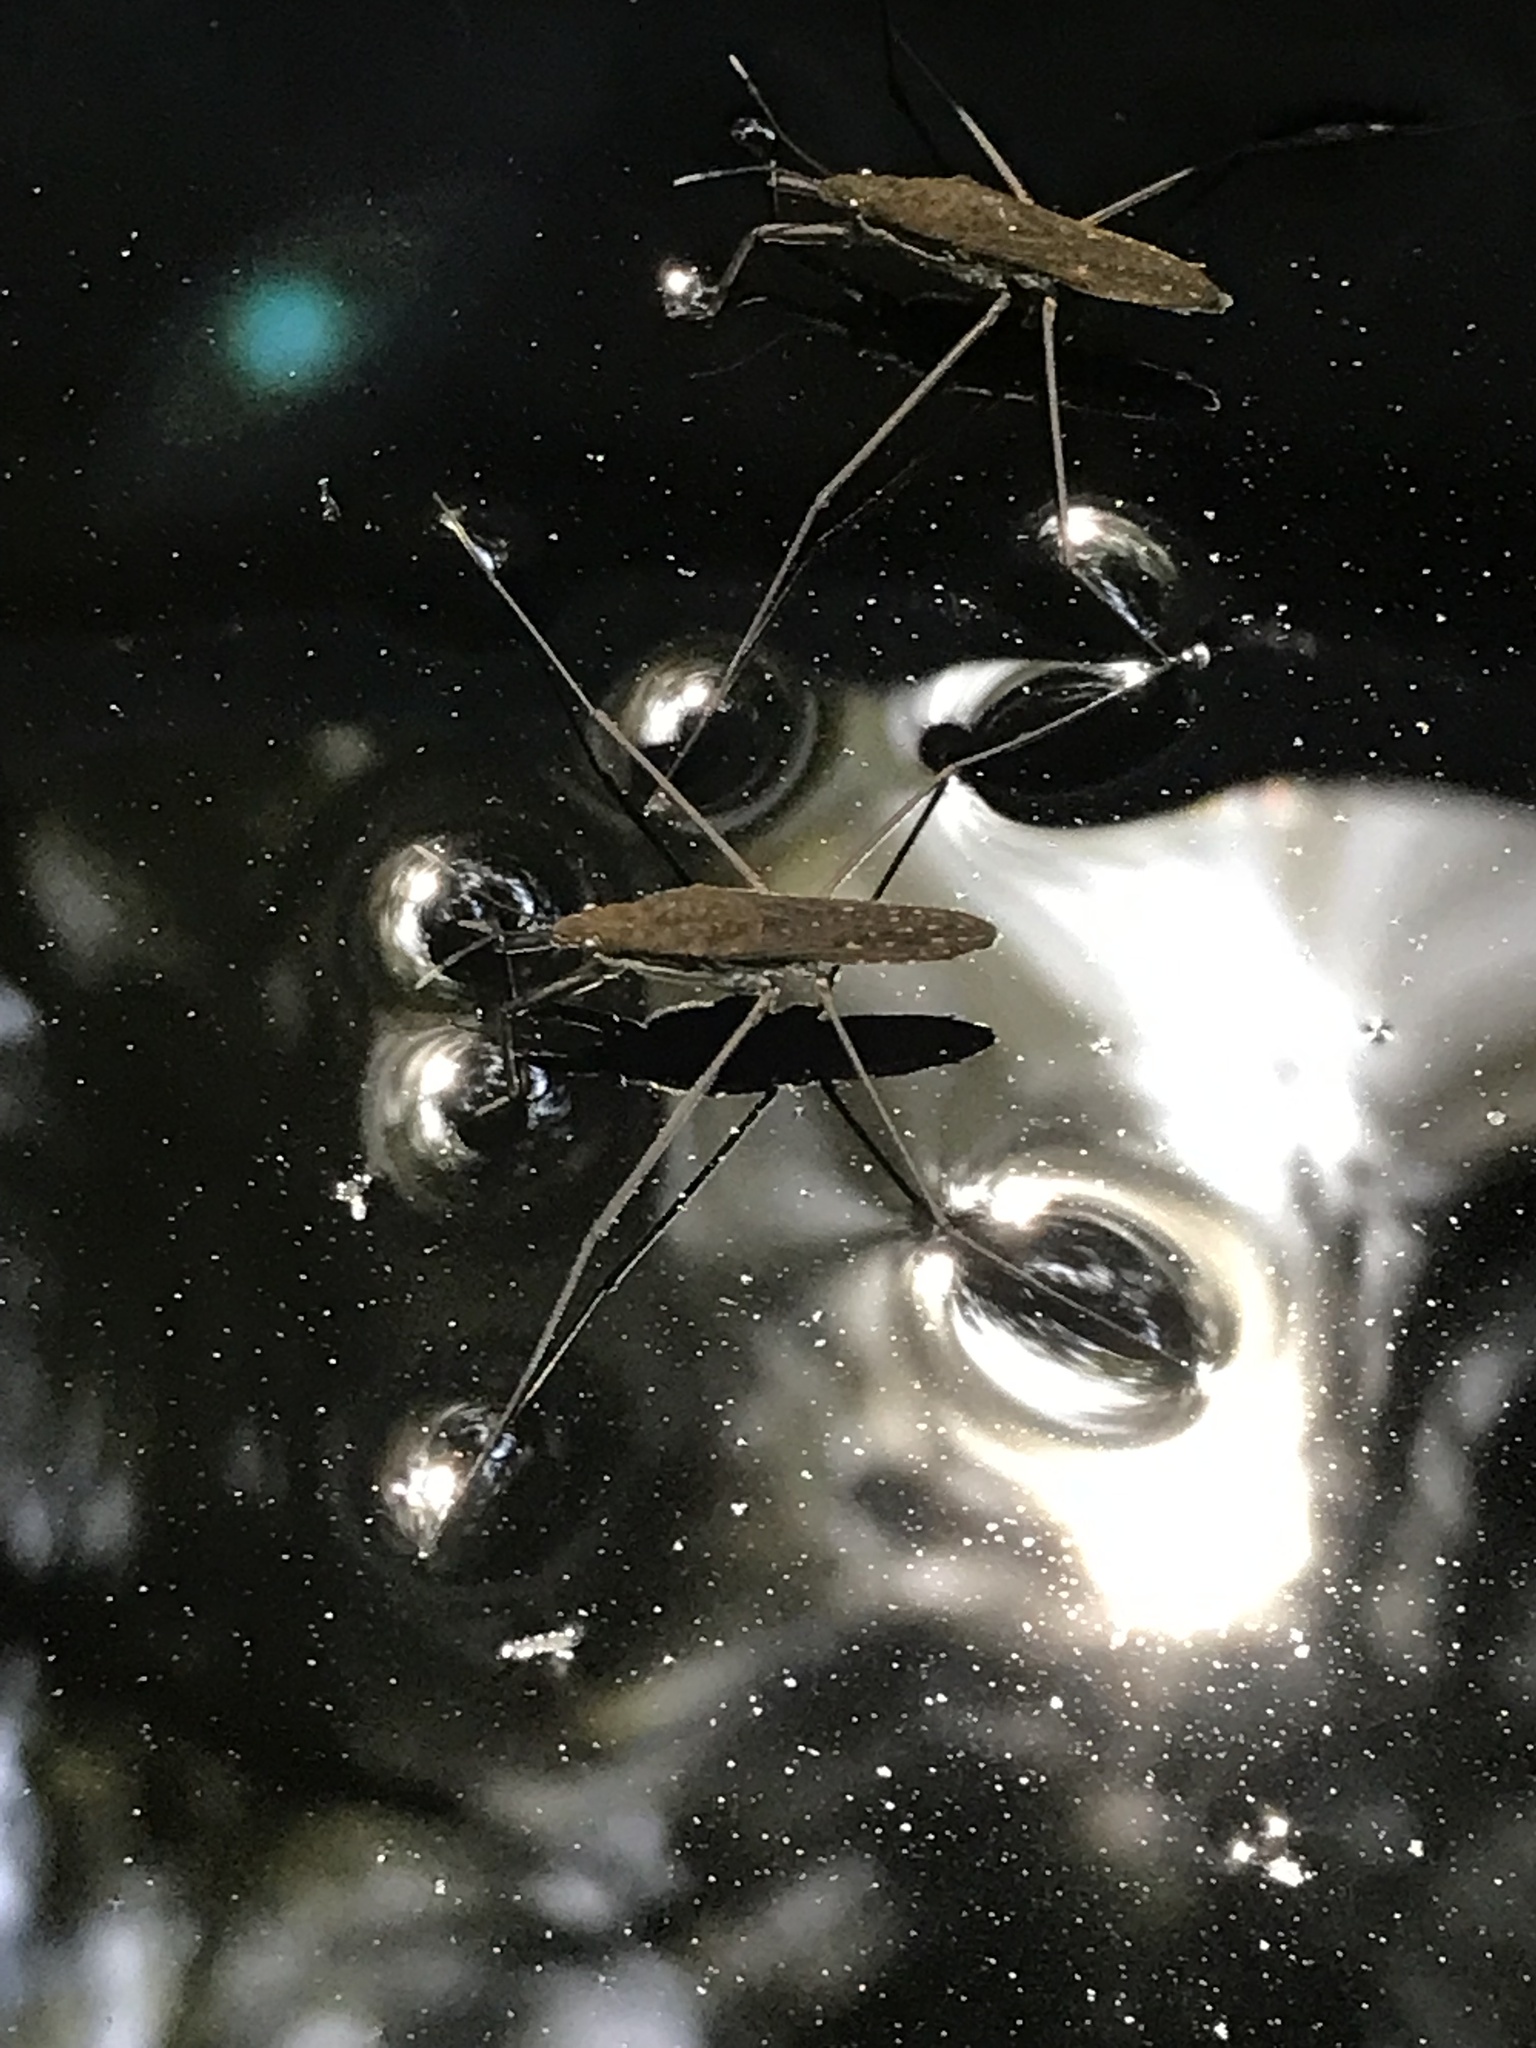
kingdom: Animalia
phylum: Arthropoda
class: Insecta
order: Hemiptera
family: Gerridae
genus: Aquarius
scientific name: Aquarius remigis
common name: Common water strider
